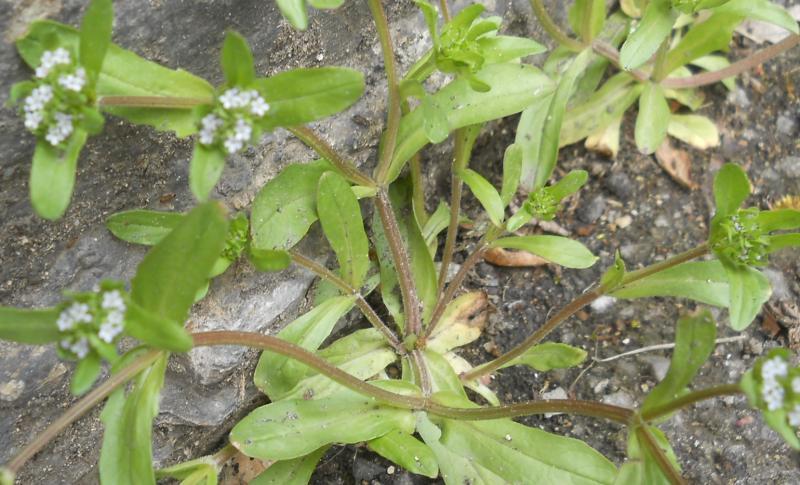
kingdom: Plantae
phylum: Tracheophyta
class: Magnoliopsida
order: Dipsacales
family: Caprifoliaceae
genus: Valerianella
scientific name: Valerianella locusta
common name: Common cornsalad
